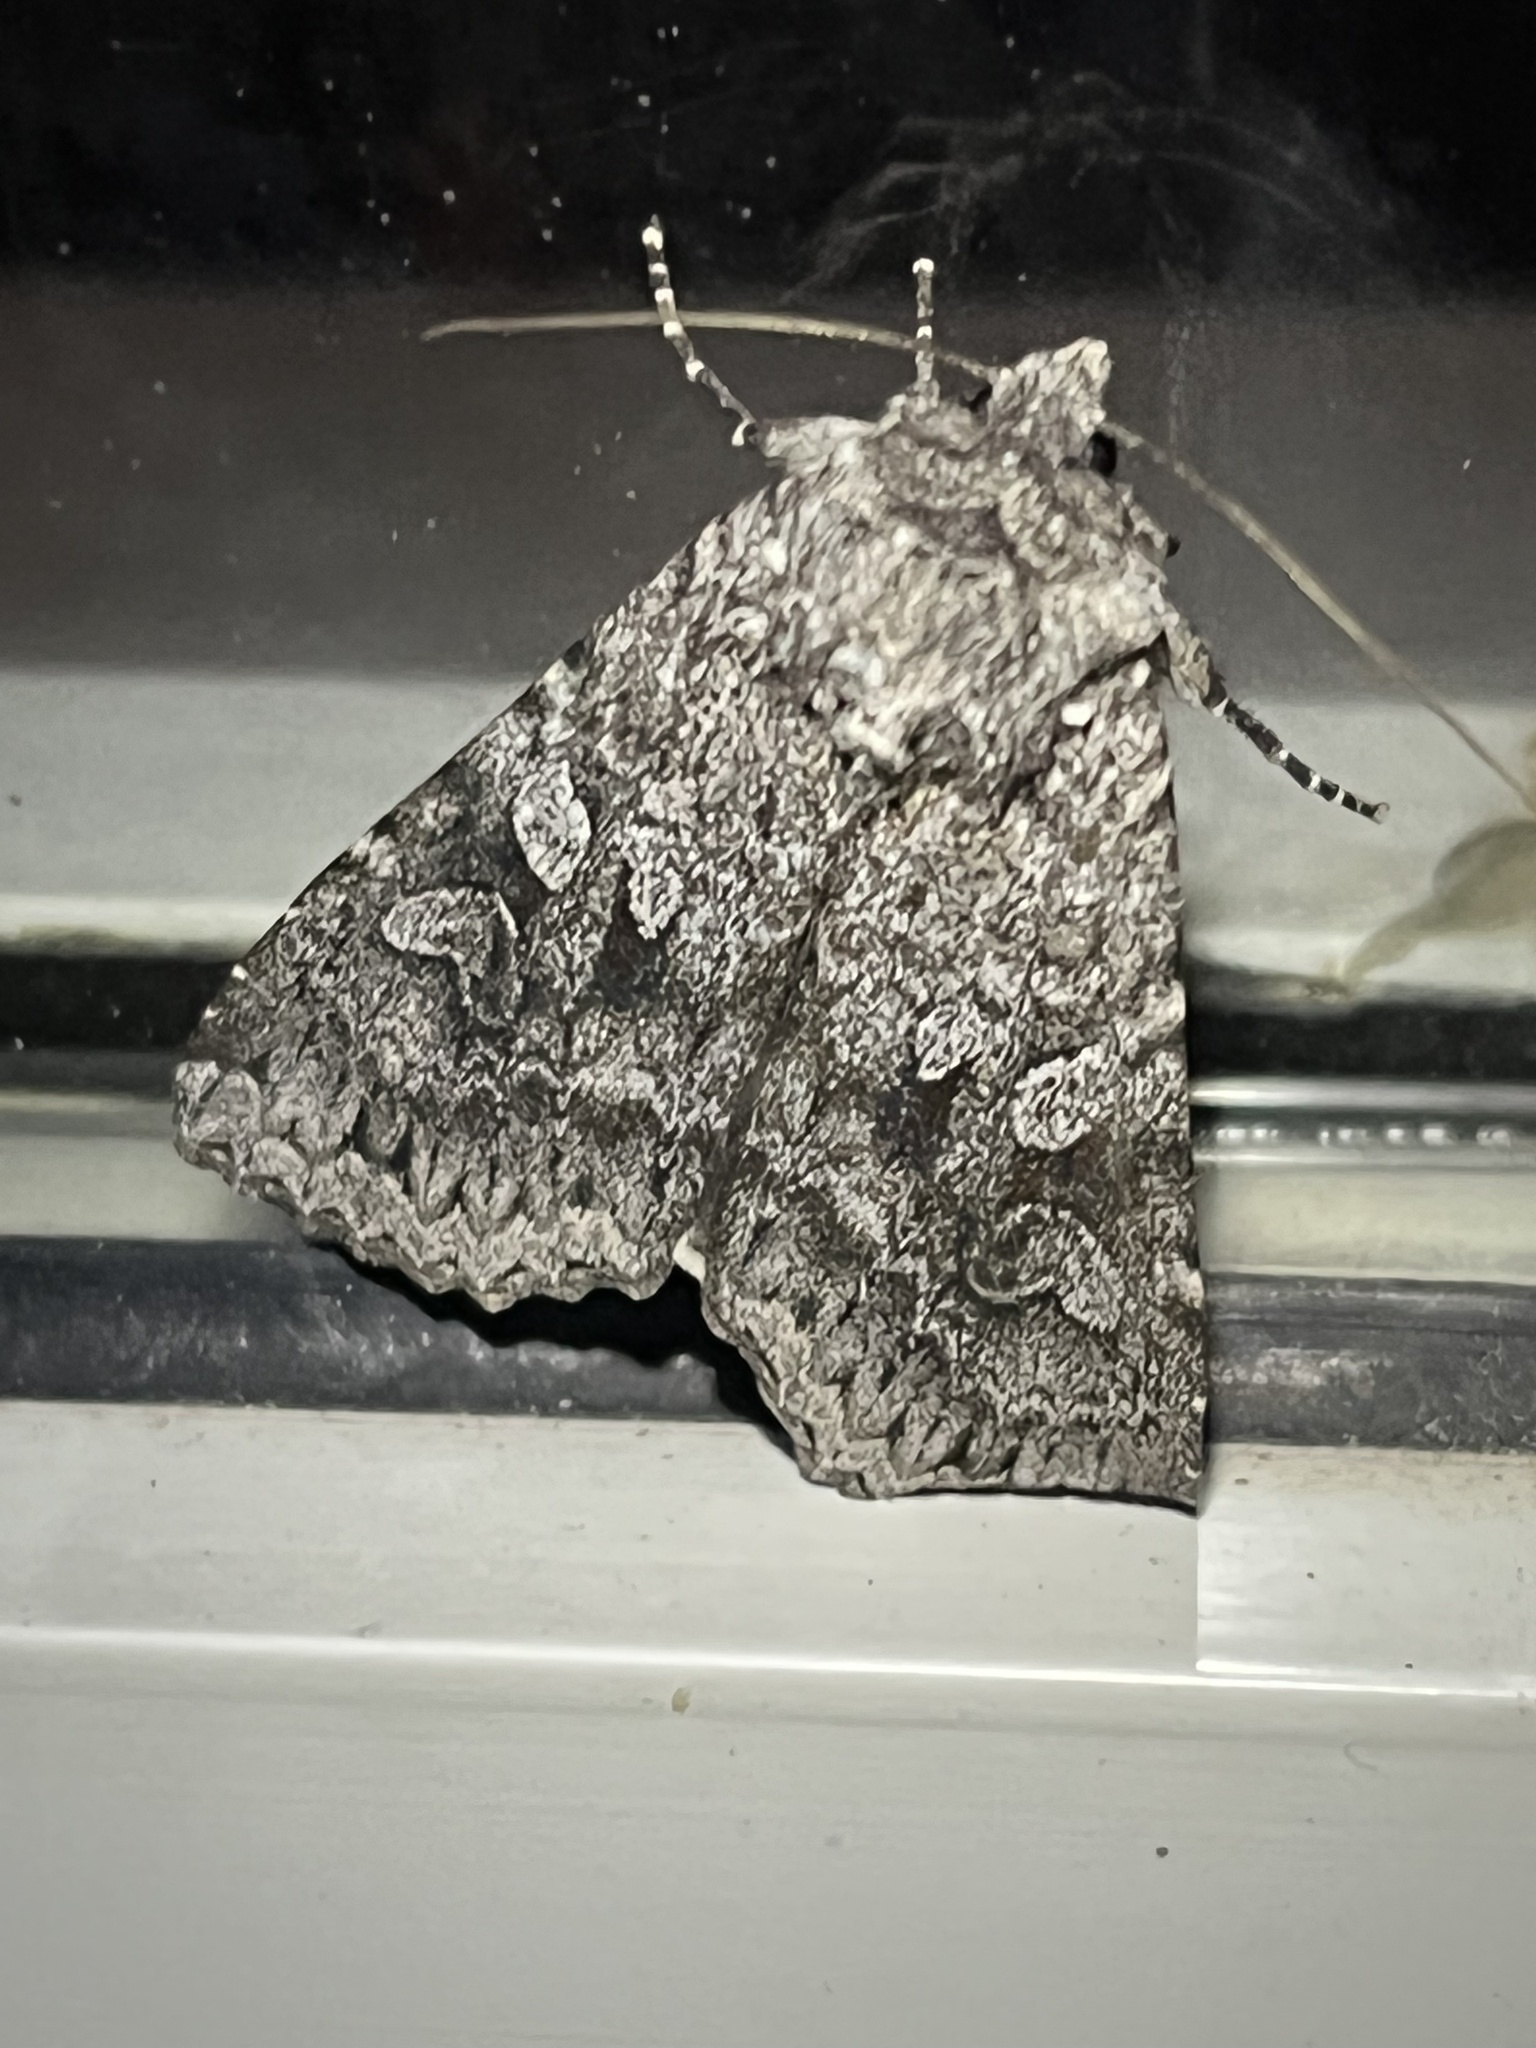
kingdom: Animalia
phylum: Arthropoda
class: Insecta
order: Lepidoptera
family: Noctuidae
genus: Eurois
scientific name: Eurois occulta
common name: Great brocade
